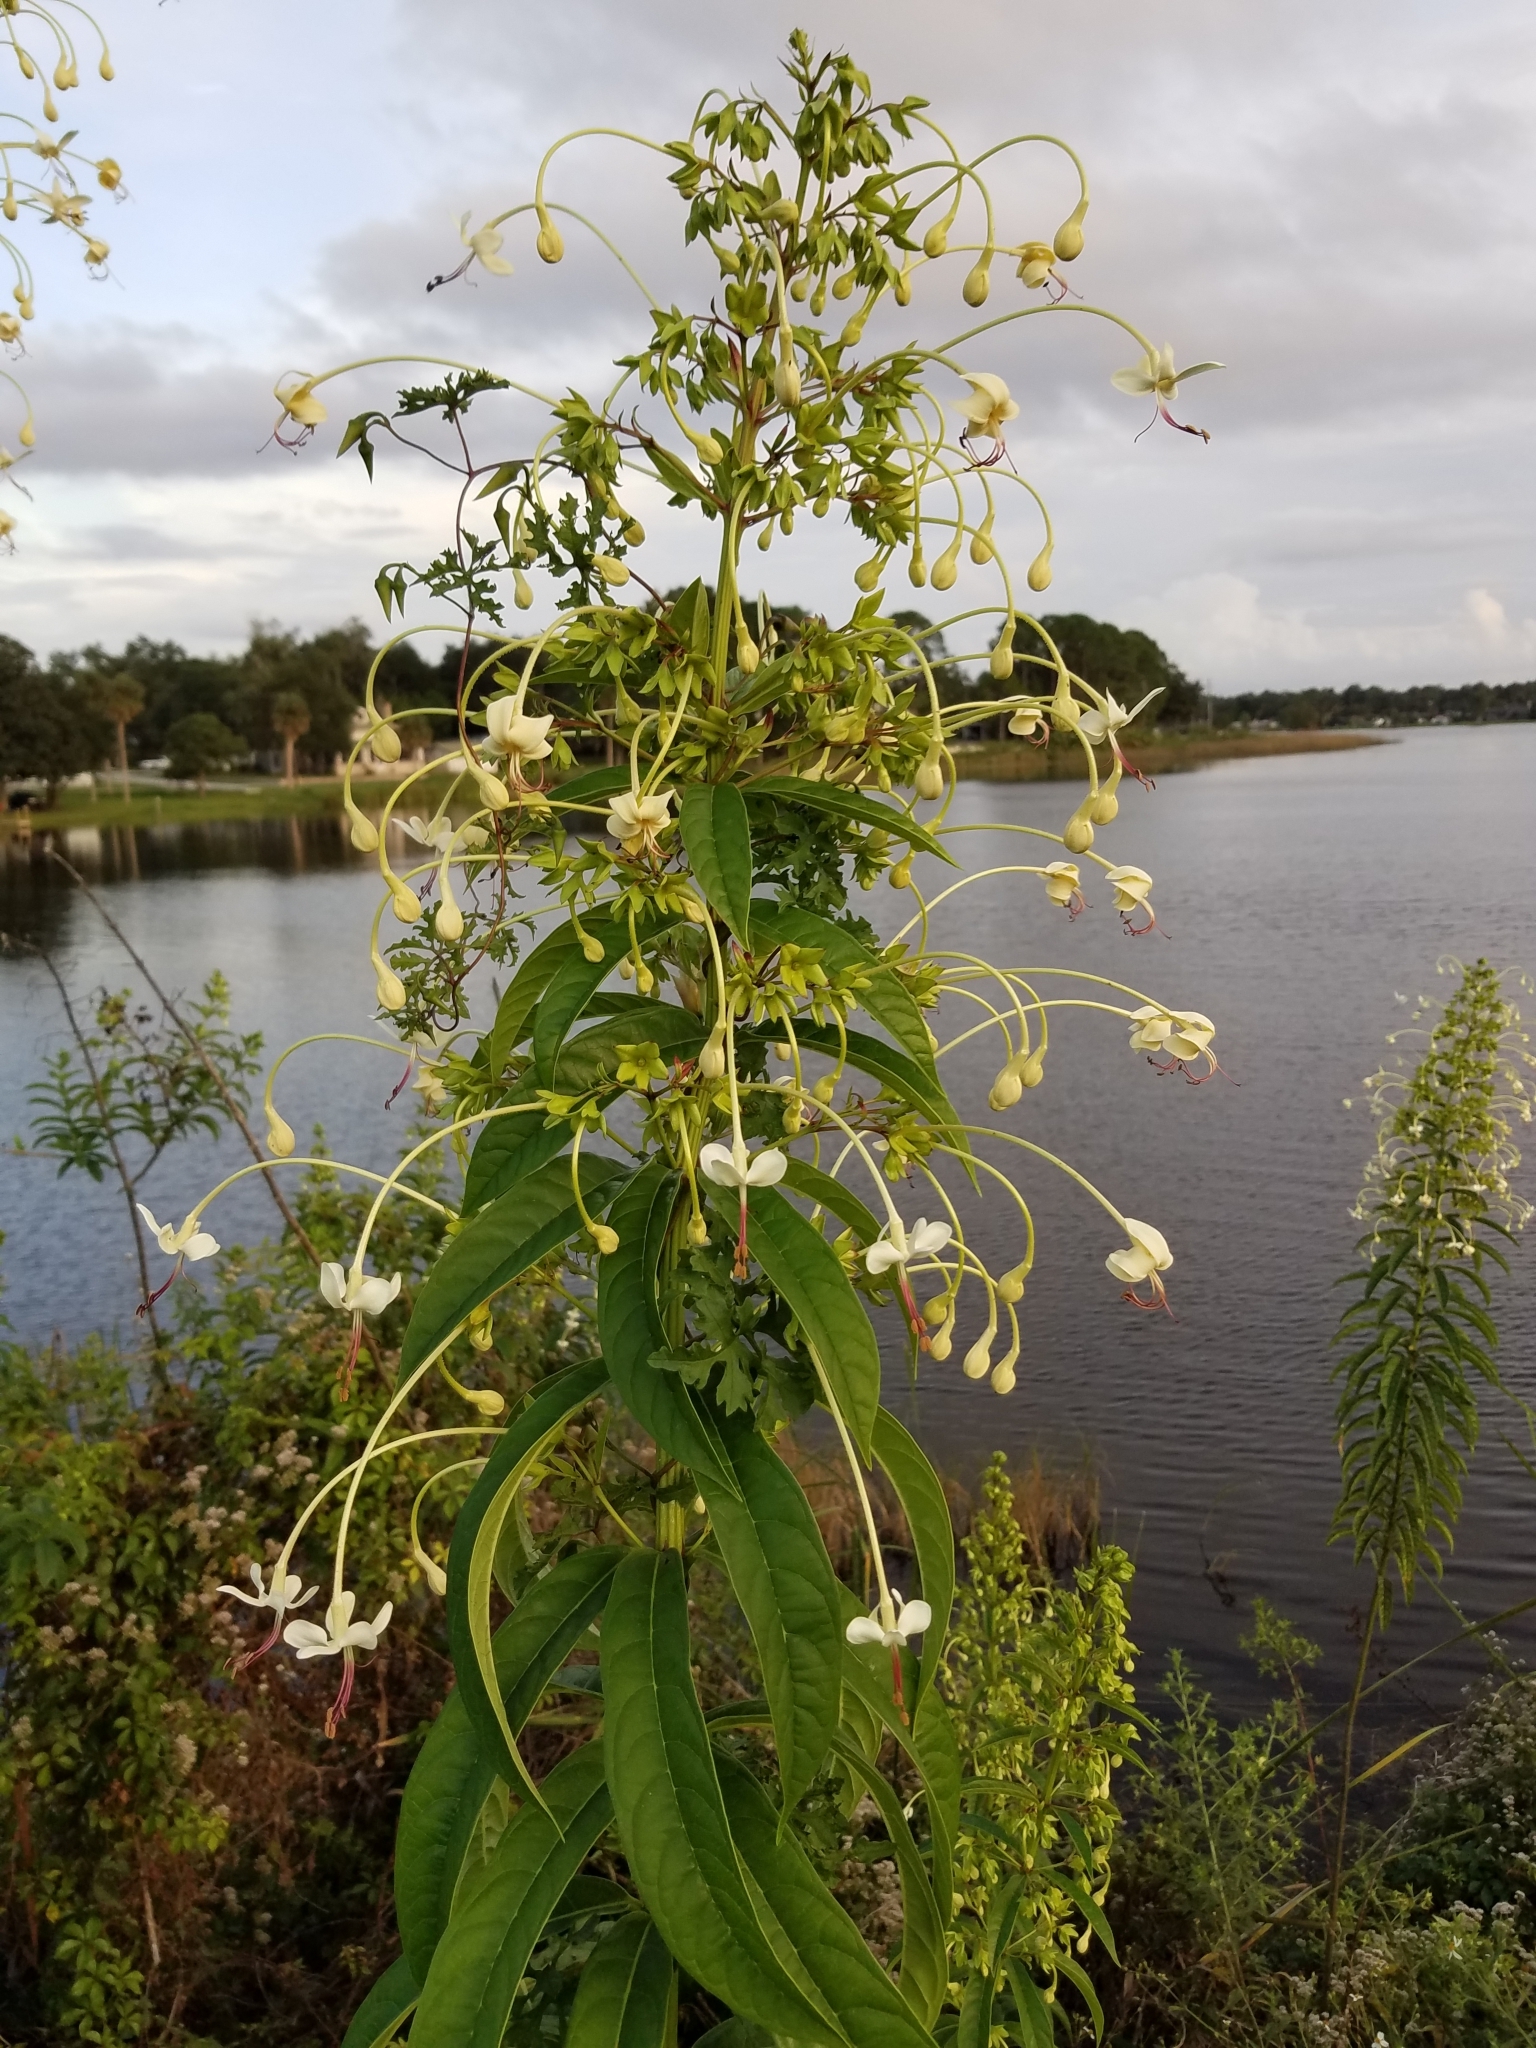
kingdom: Plantae
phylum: Tracheophyta
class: Magnoliopsida
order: Lamiales
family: Lamiaceae
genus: Clerodendrum
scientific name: Clerodendrum indicum
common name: Turk's turbin
